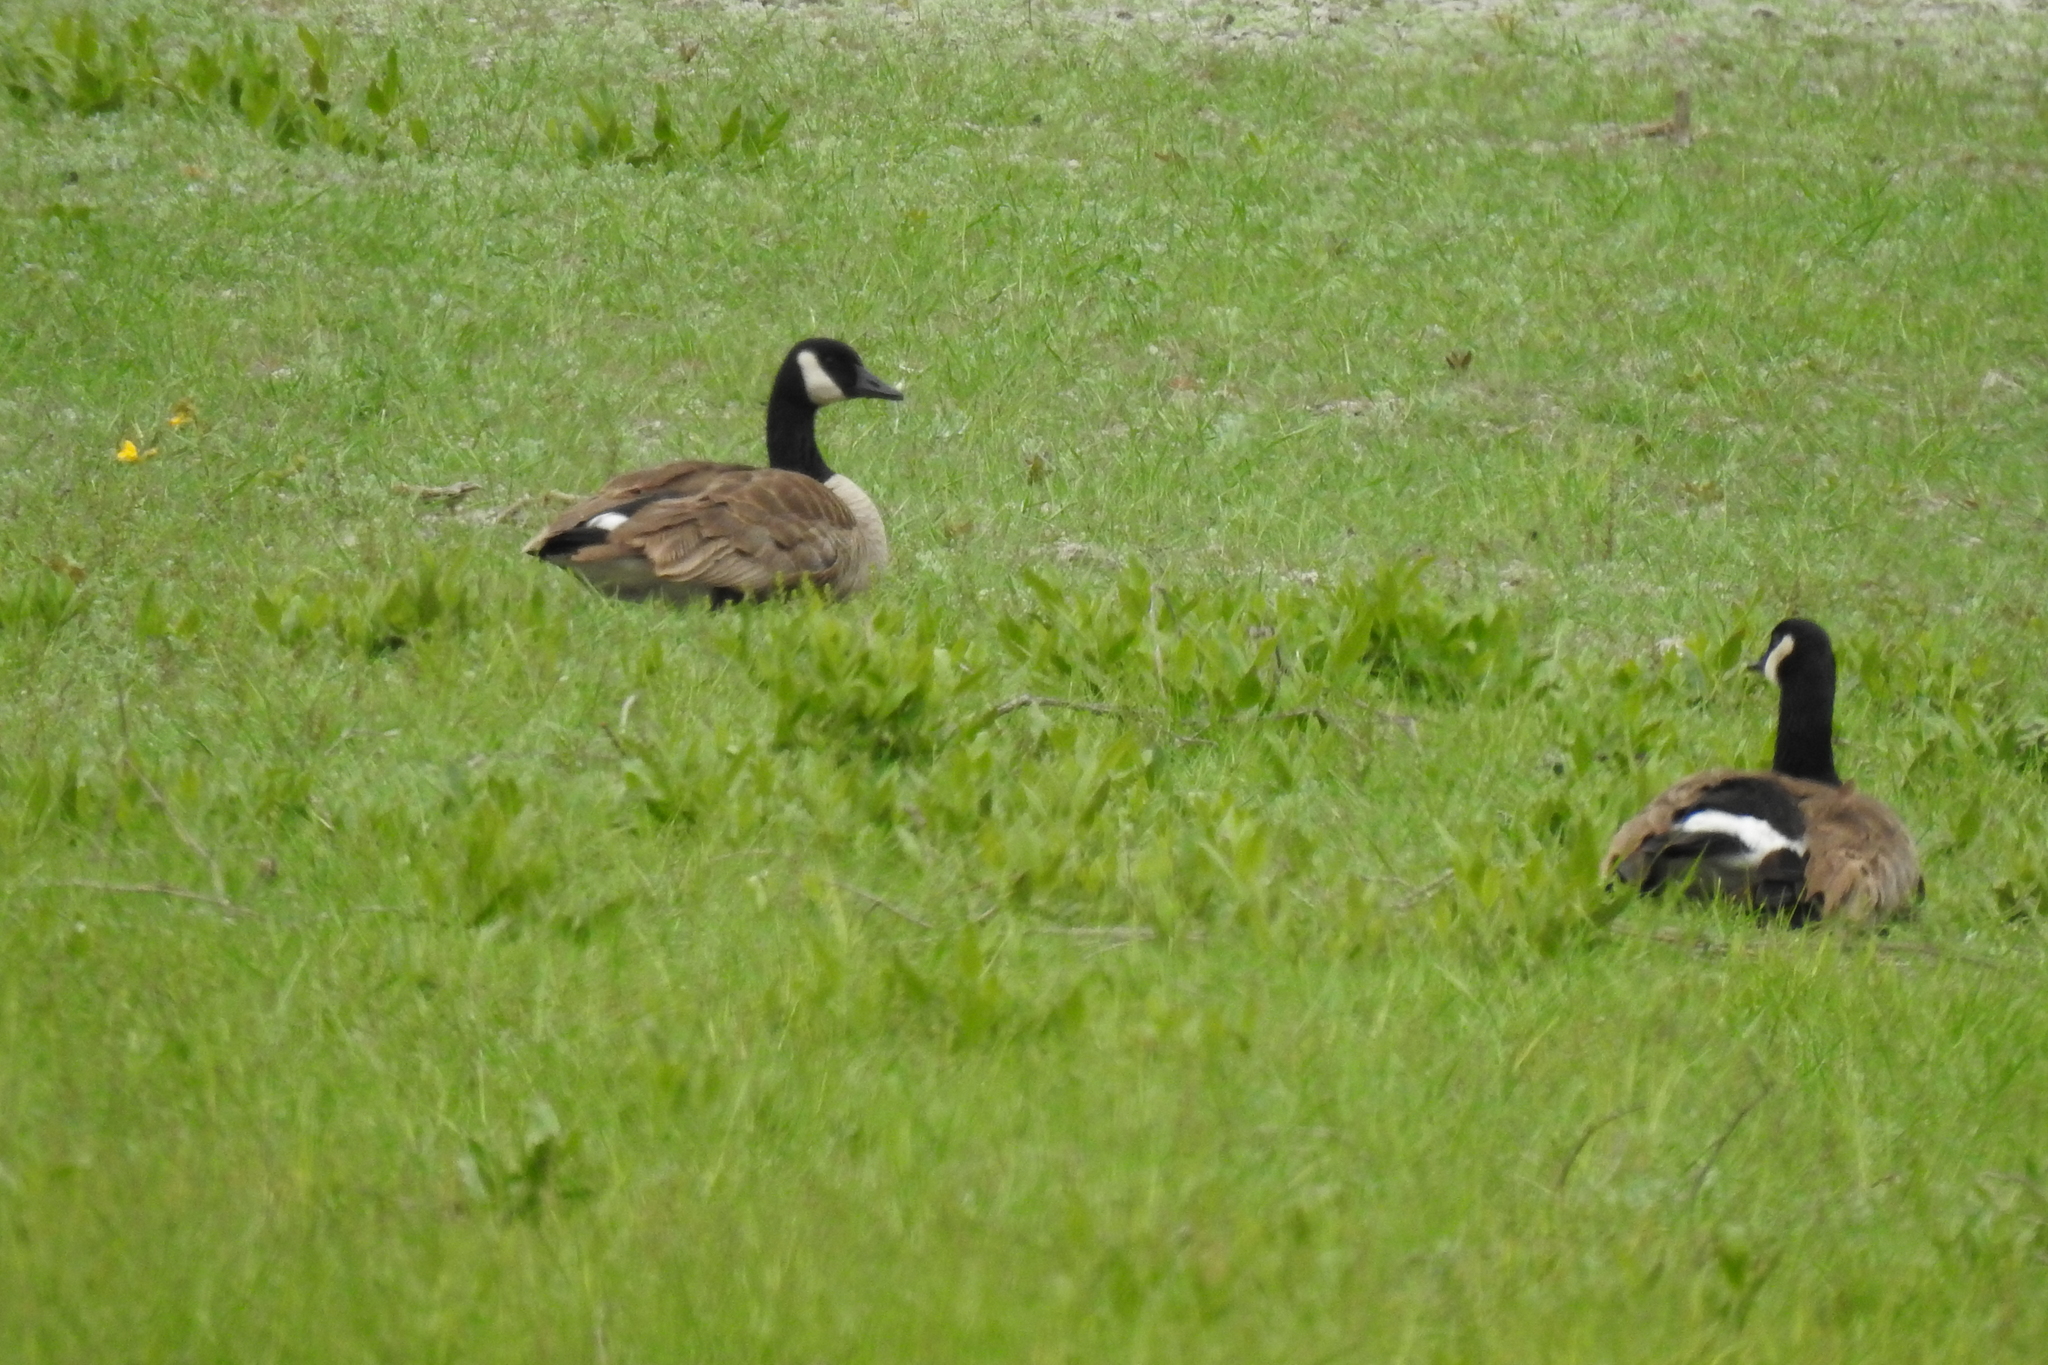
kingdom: Animalia
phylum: Chordata
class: Aves
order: Anseriformes
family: Anatidae
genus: Branta
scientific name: Branta canadensis
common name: Canada goose
